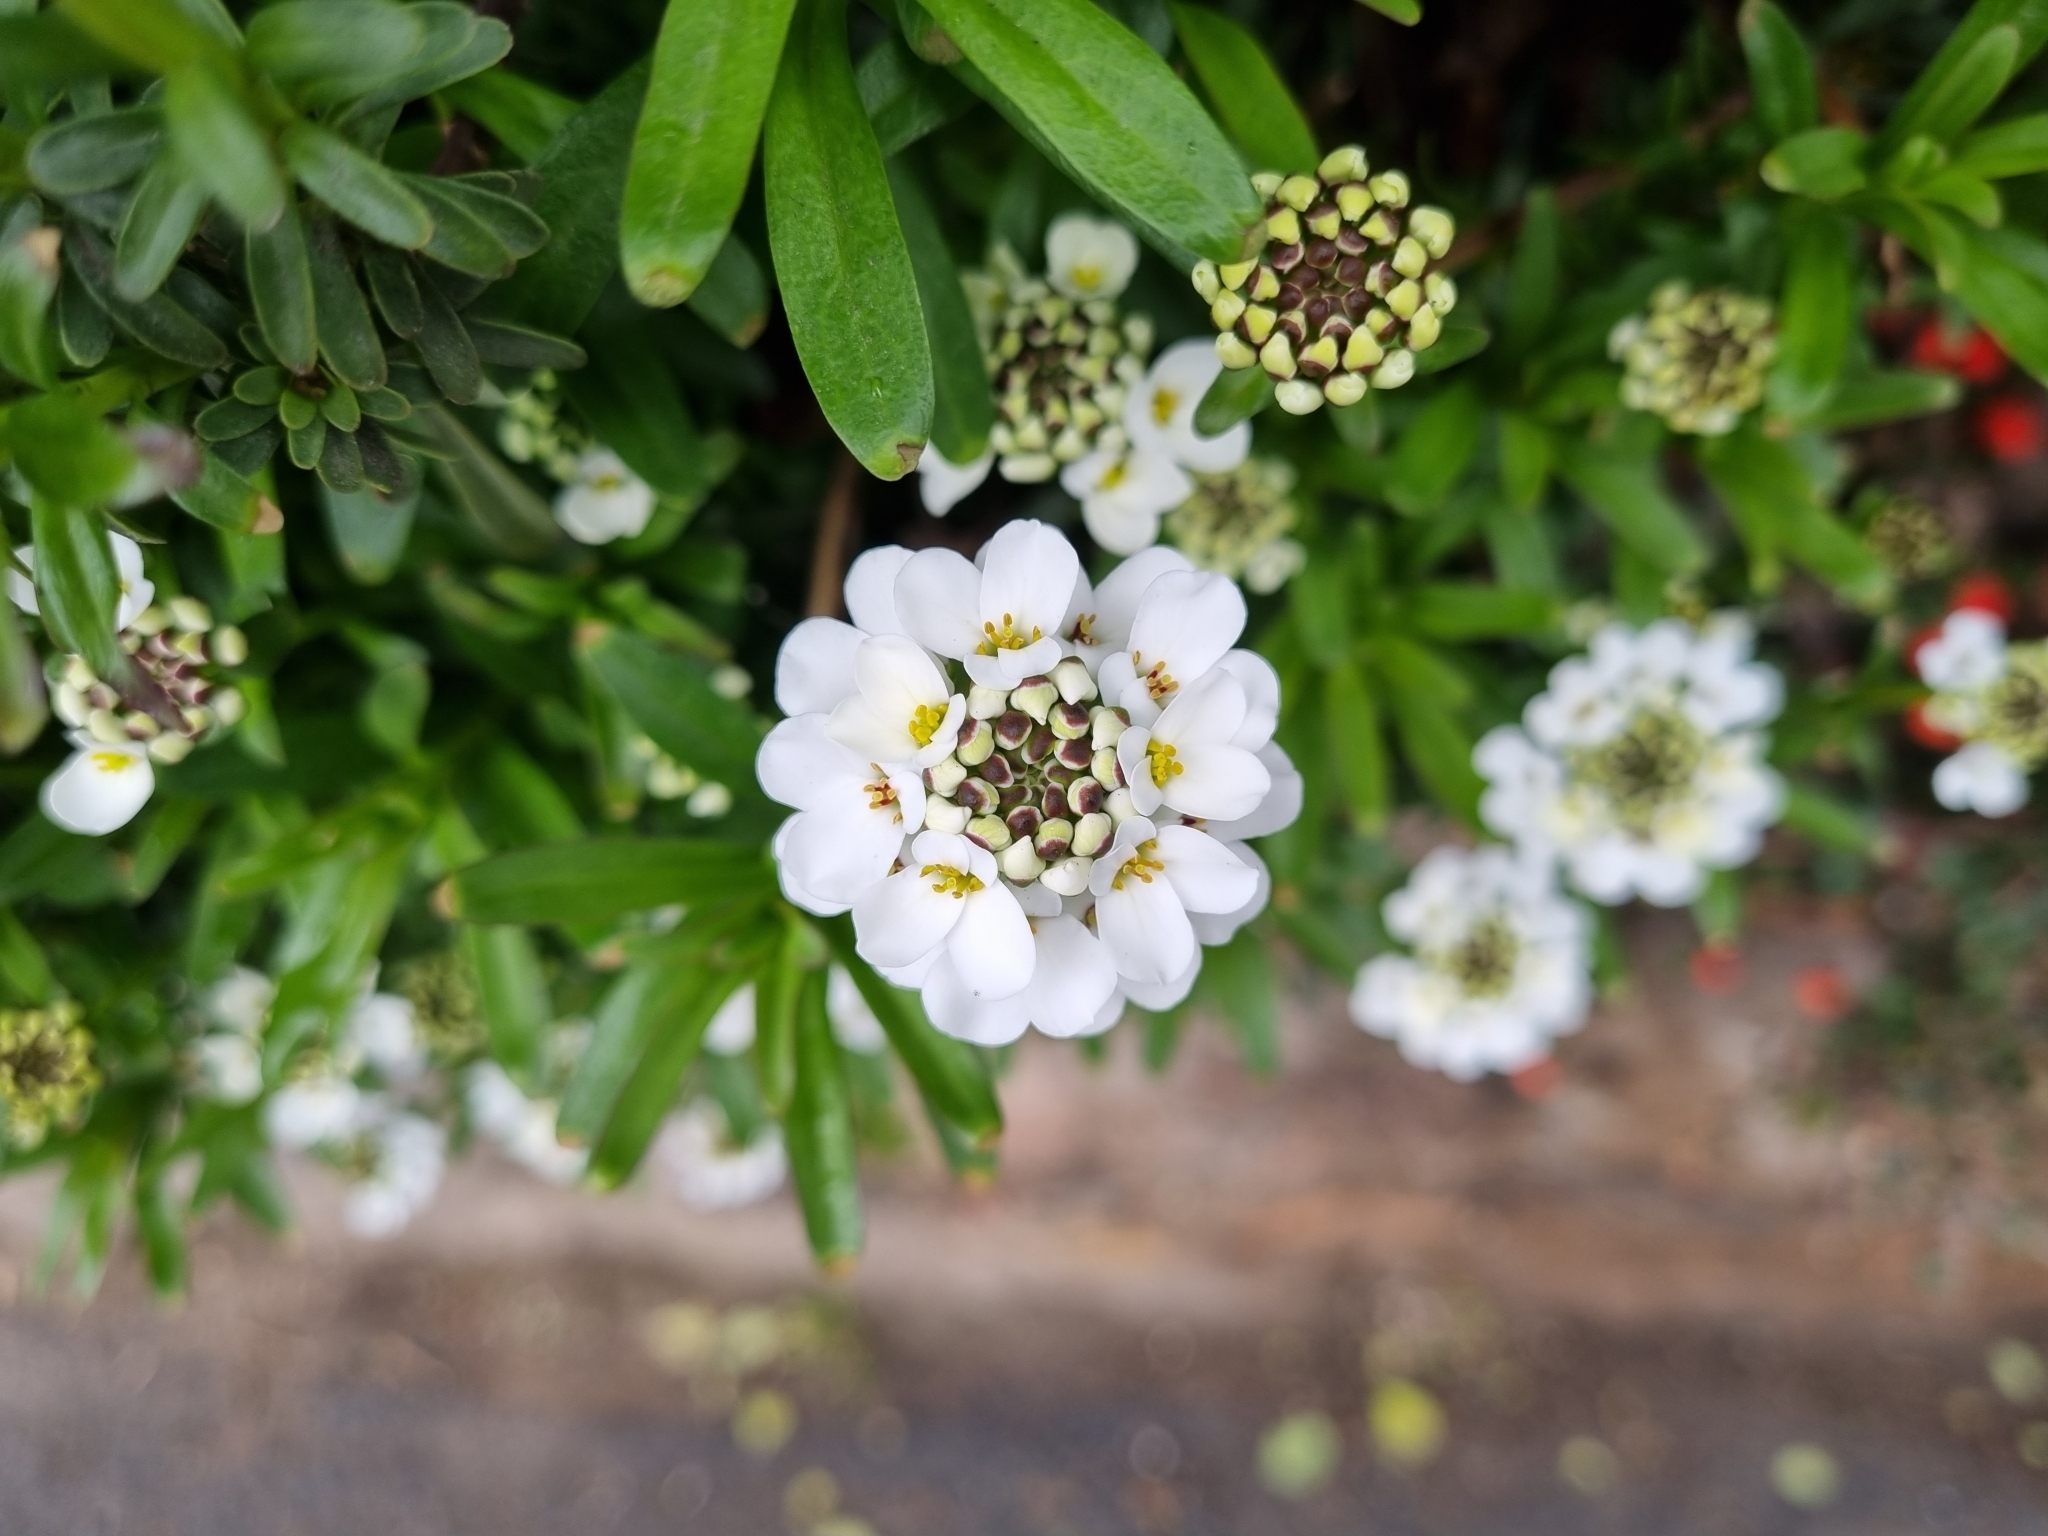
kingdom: Plantae
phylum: Tracheophyta
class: Magnoliopsida
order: Brassicales
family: Brassicaceae
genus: Iberis
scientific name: Iberis sempervirens
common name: Evergreen candytuft
